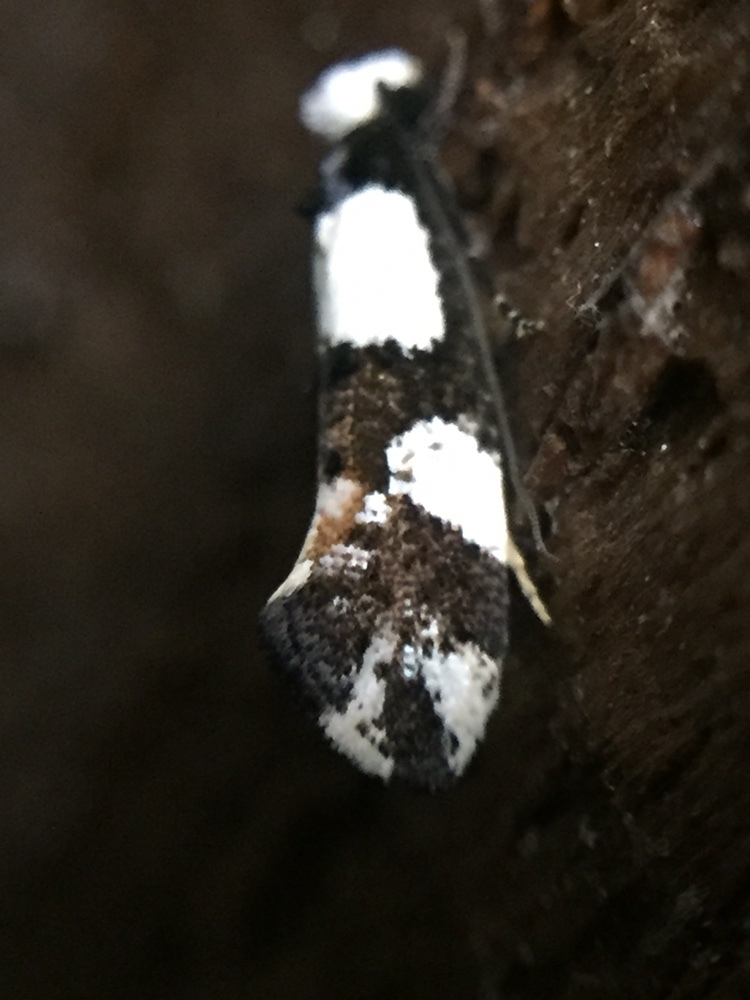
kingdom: Animalia
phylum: Arthropoda
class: Insecta
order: Lepidoptera
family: Tineidae
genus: Monopis
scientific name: Monopis icterogastra
